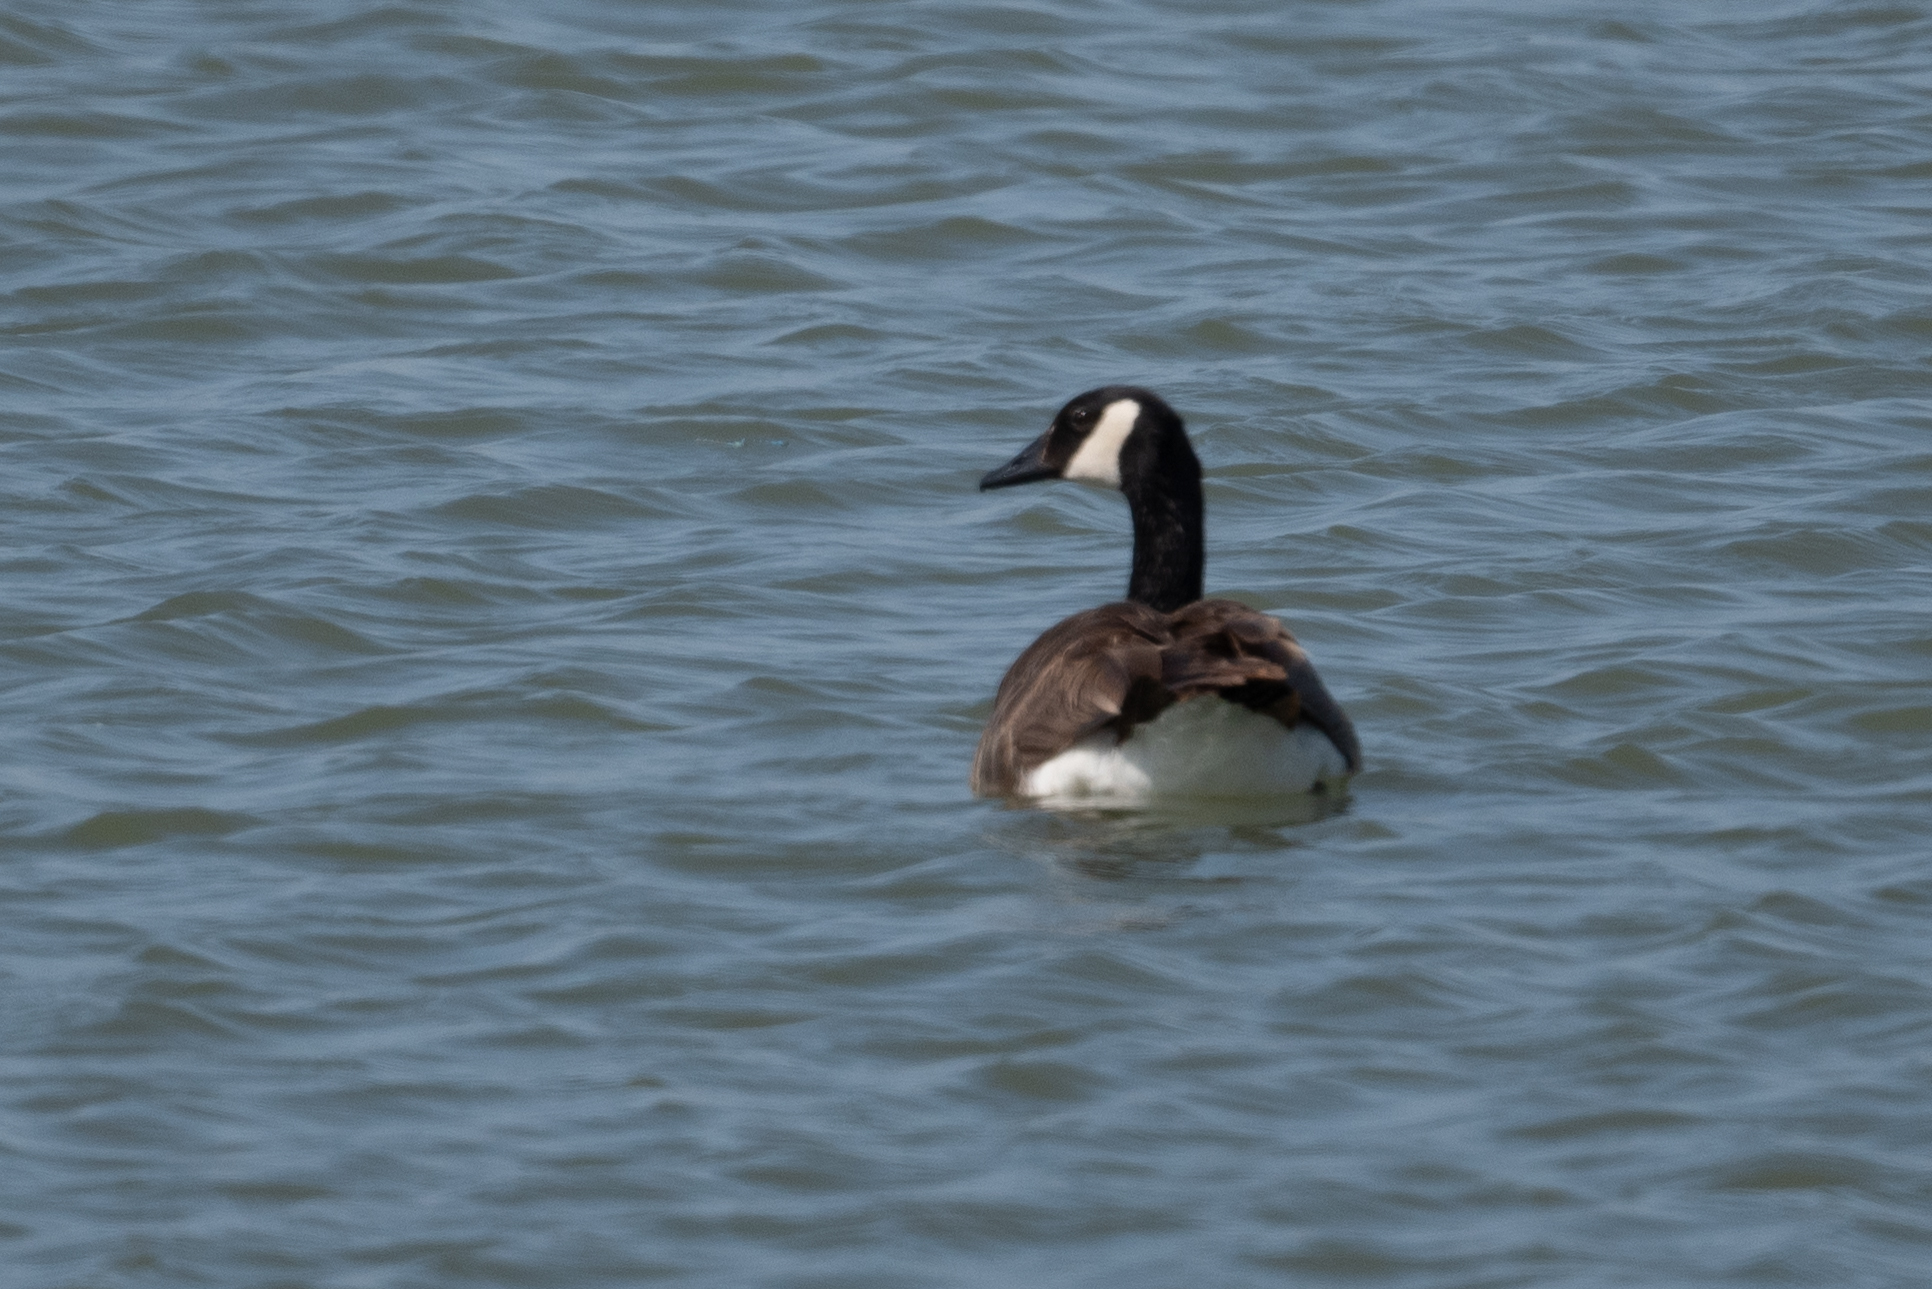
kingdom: Animalia
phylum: Chordata
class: Aves
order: Anseriformes
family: Anatidae
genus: Branta
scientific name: Branta canadensis
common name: Canada goose
